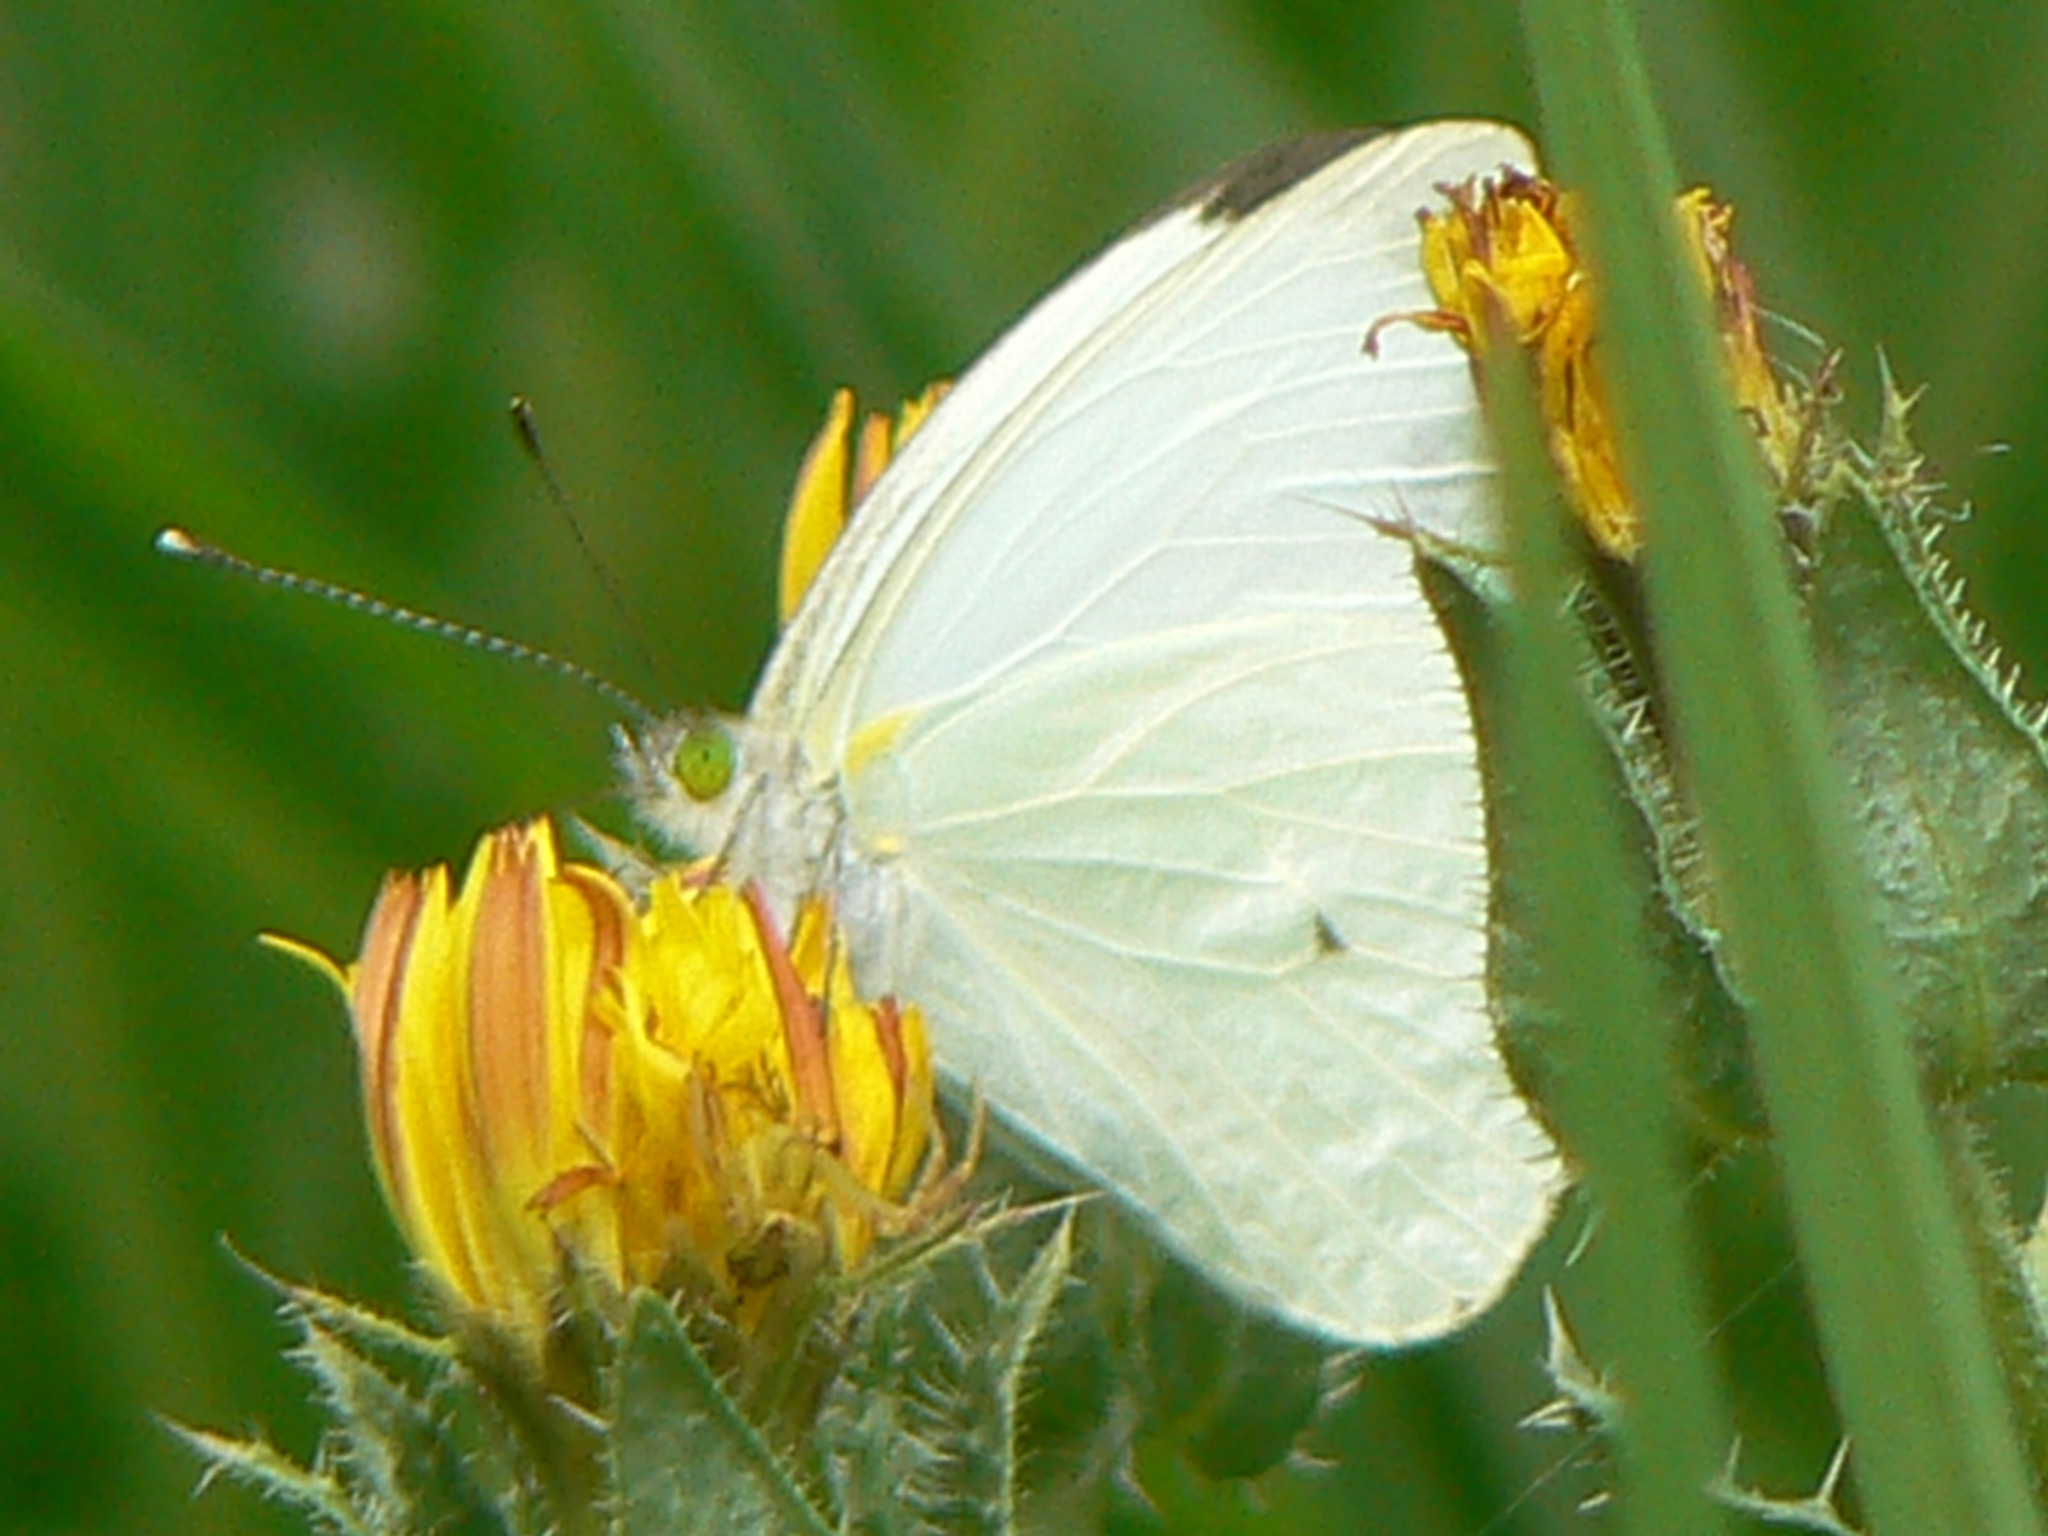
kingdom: Animalia
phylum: Arthropoda
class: Insecta
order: Lepidoptera
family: Pieridae
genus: Leptophobia
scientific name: Leptophobia aripa
